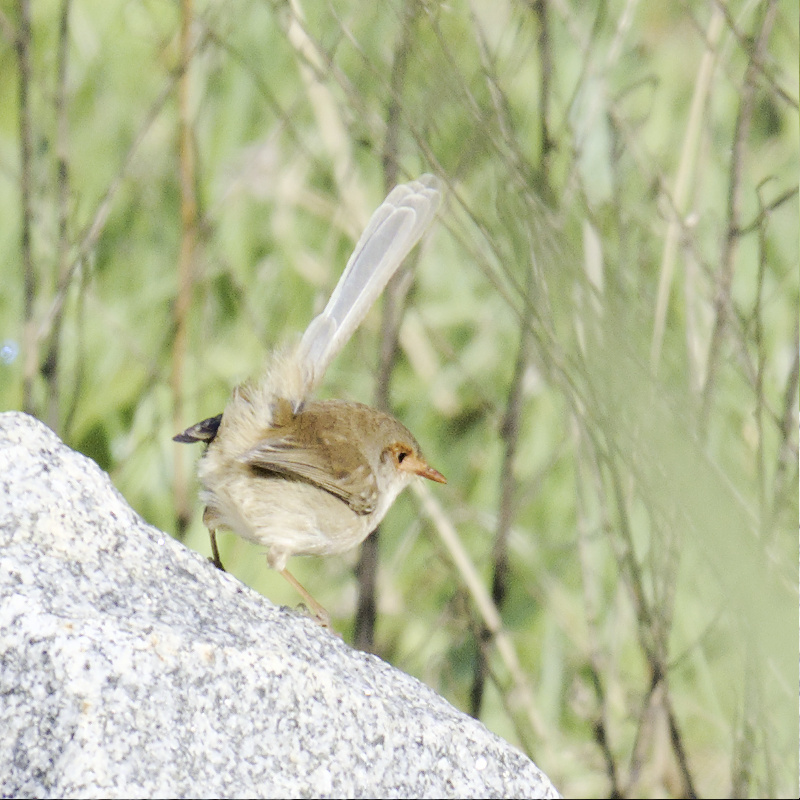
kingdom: Animalia
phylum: Chordata
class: Aves
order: Passeriformes
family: Maluridae
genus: Malurus
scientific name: Malurus cyaneus
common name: Superb fairywren
